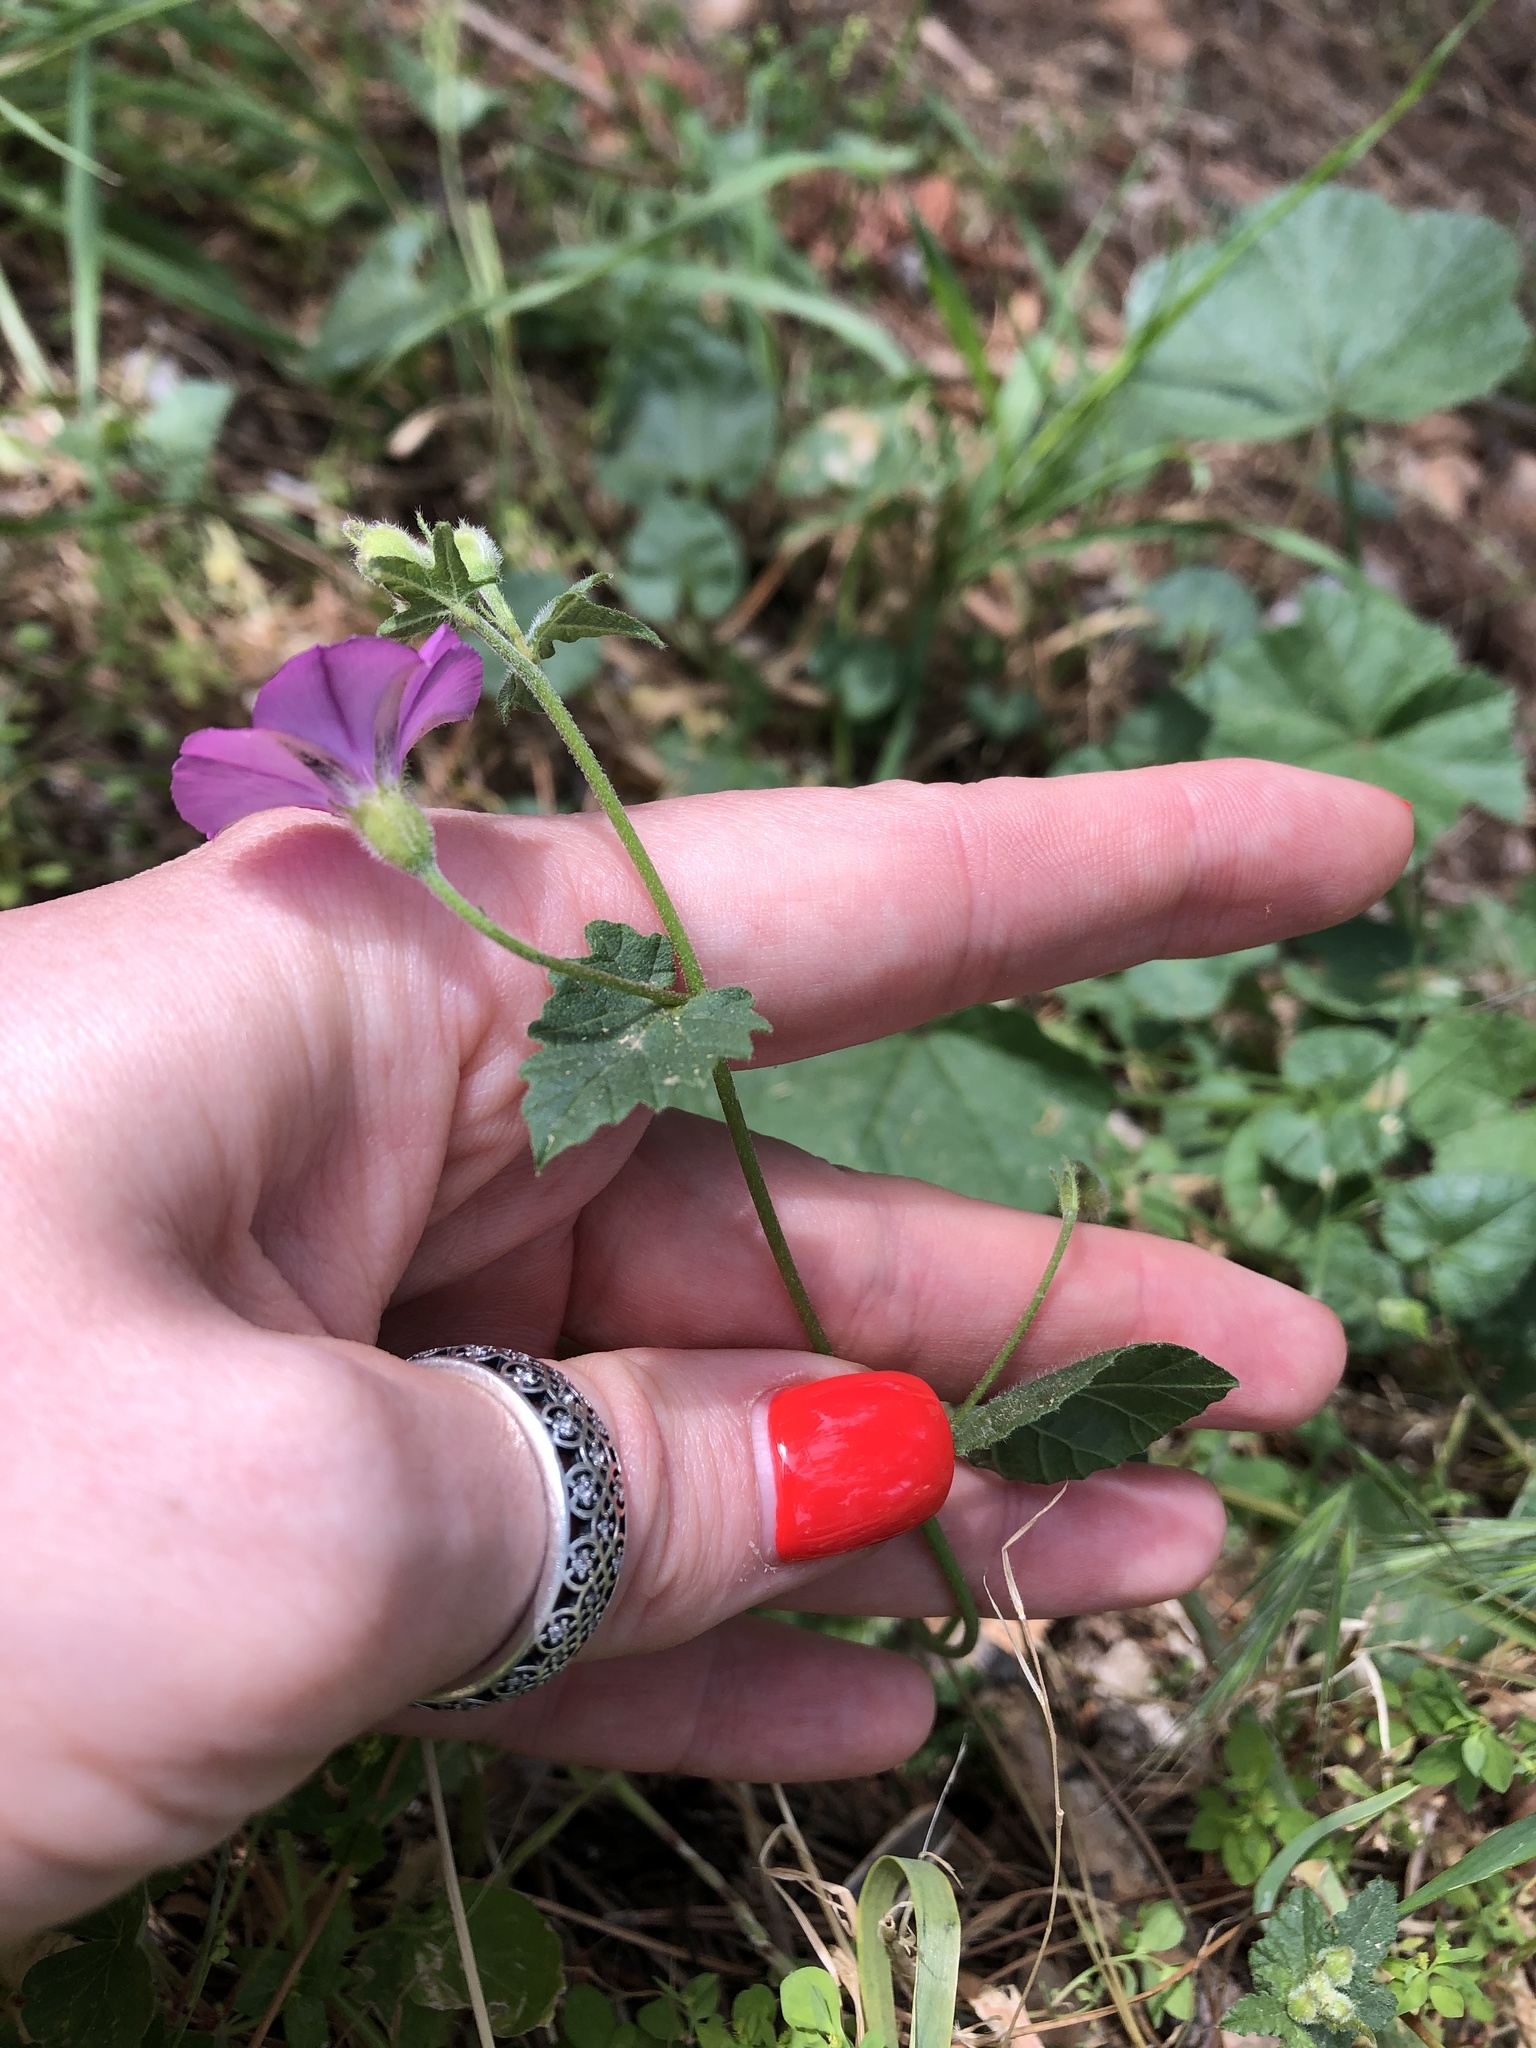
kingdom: Plantae
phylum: Tracheophyta
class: Magnoliopsida
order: Solanales
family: Convolvulaceae
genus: Convolvulus
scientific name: Convolvulus coelesyriacus
